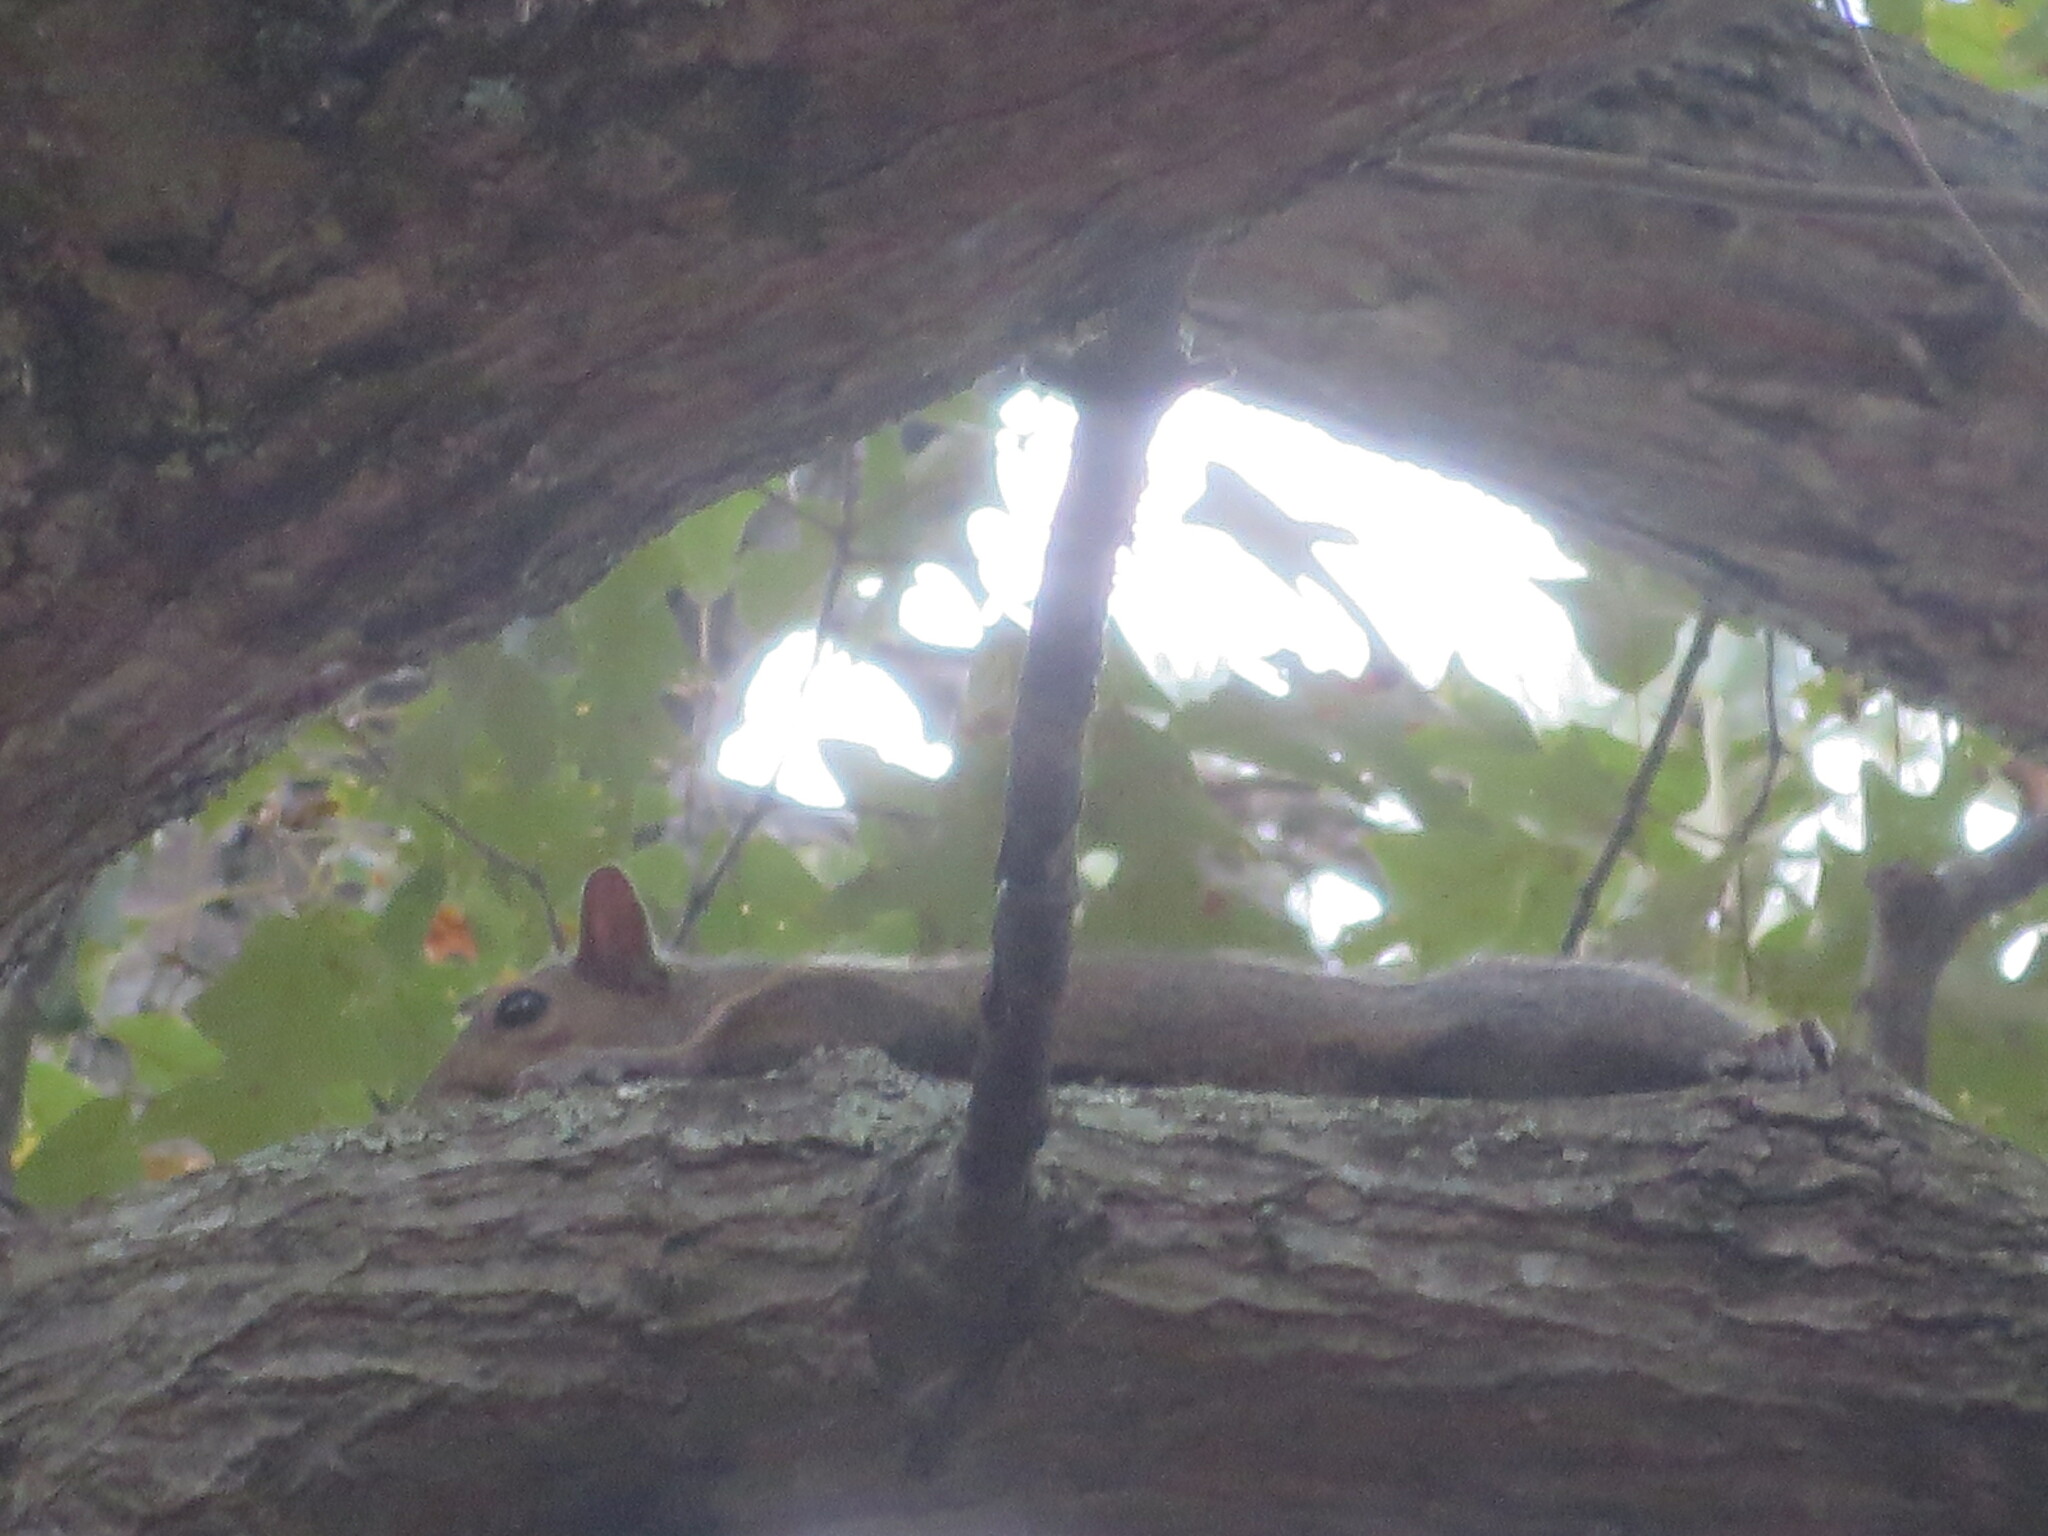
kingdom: Animalia
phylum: Chordata
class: Mammalia
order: Rodentia
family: Sciuridae
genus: Sciurus
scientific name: Sciurus carolinensis
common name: Eastern gray squirrel
